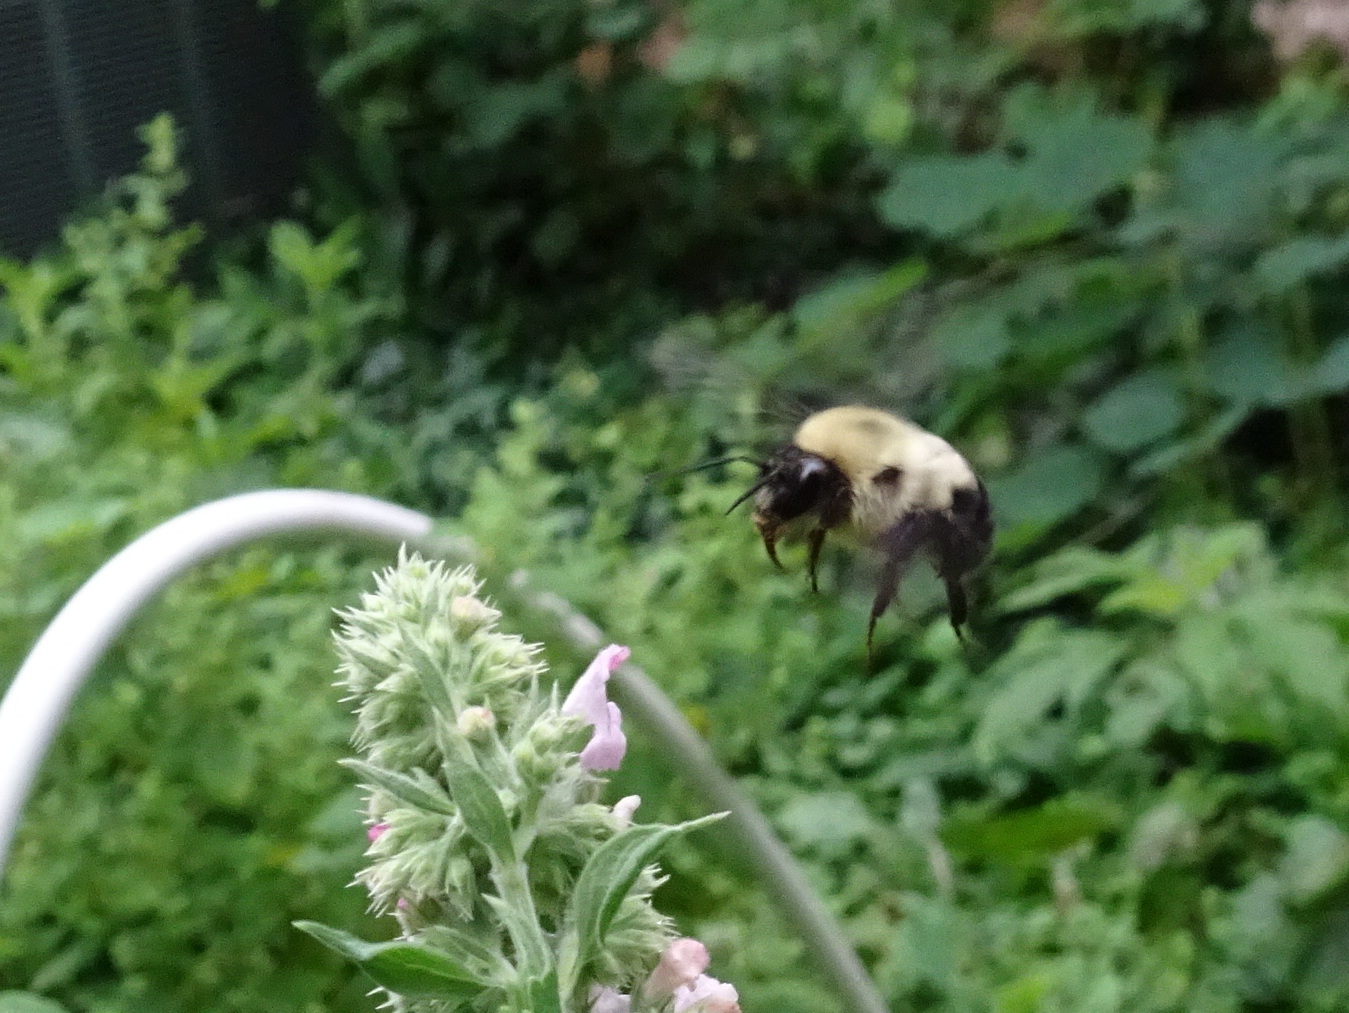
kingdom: Animalia
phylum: Arthropoda
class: Insecta
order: Hymenoptera
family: Apidae
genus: Bombus
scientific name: Bombus bimaculatus
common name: Two-spotted bumble bee
